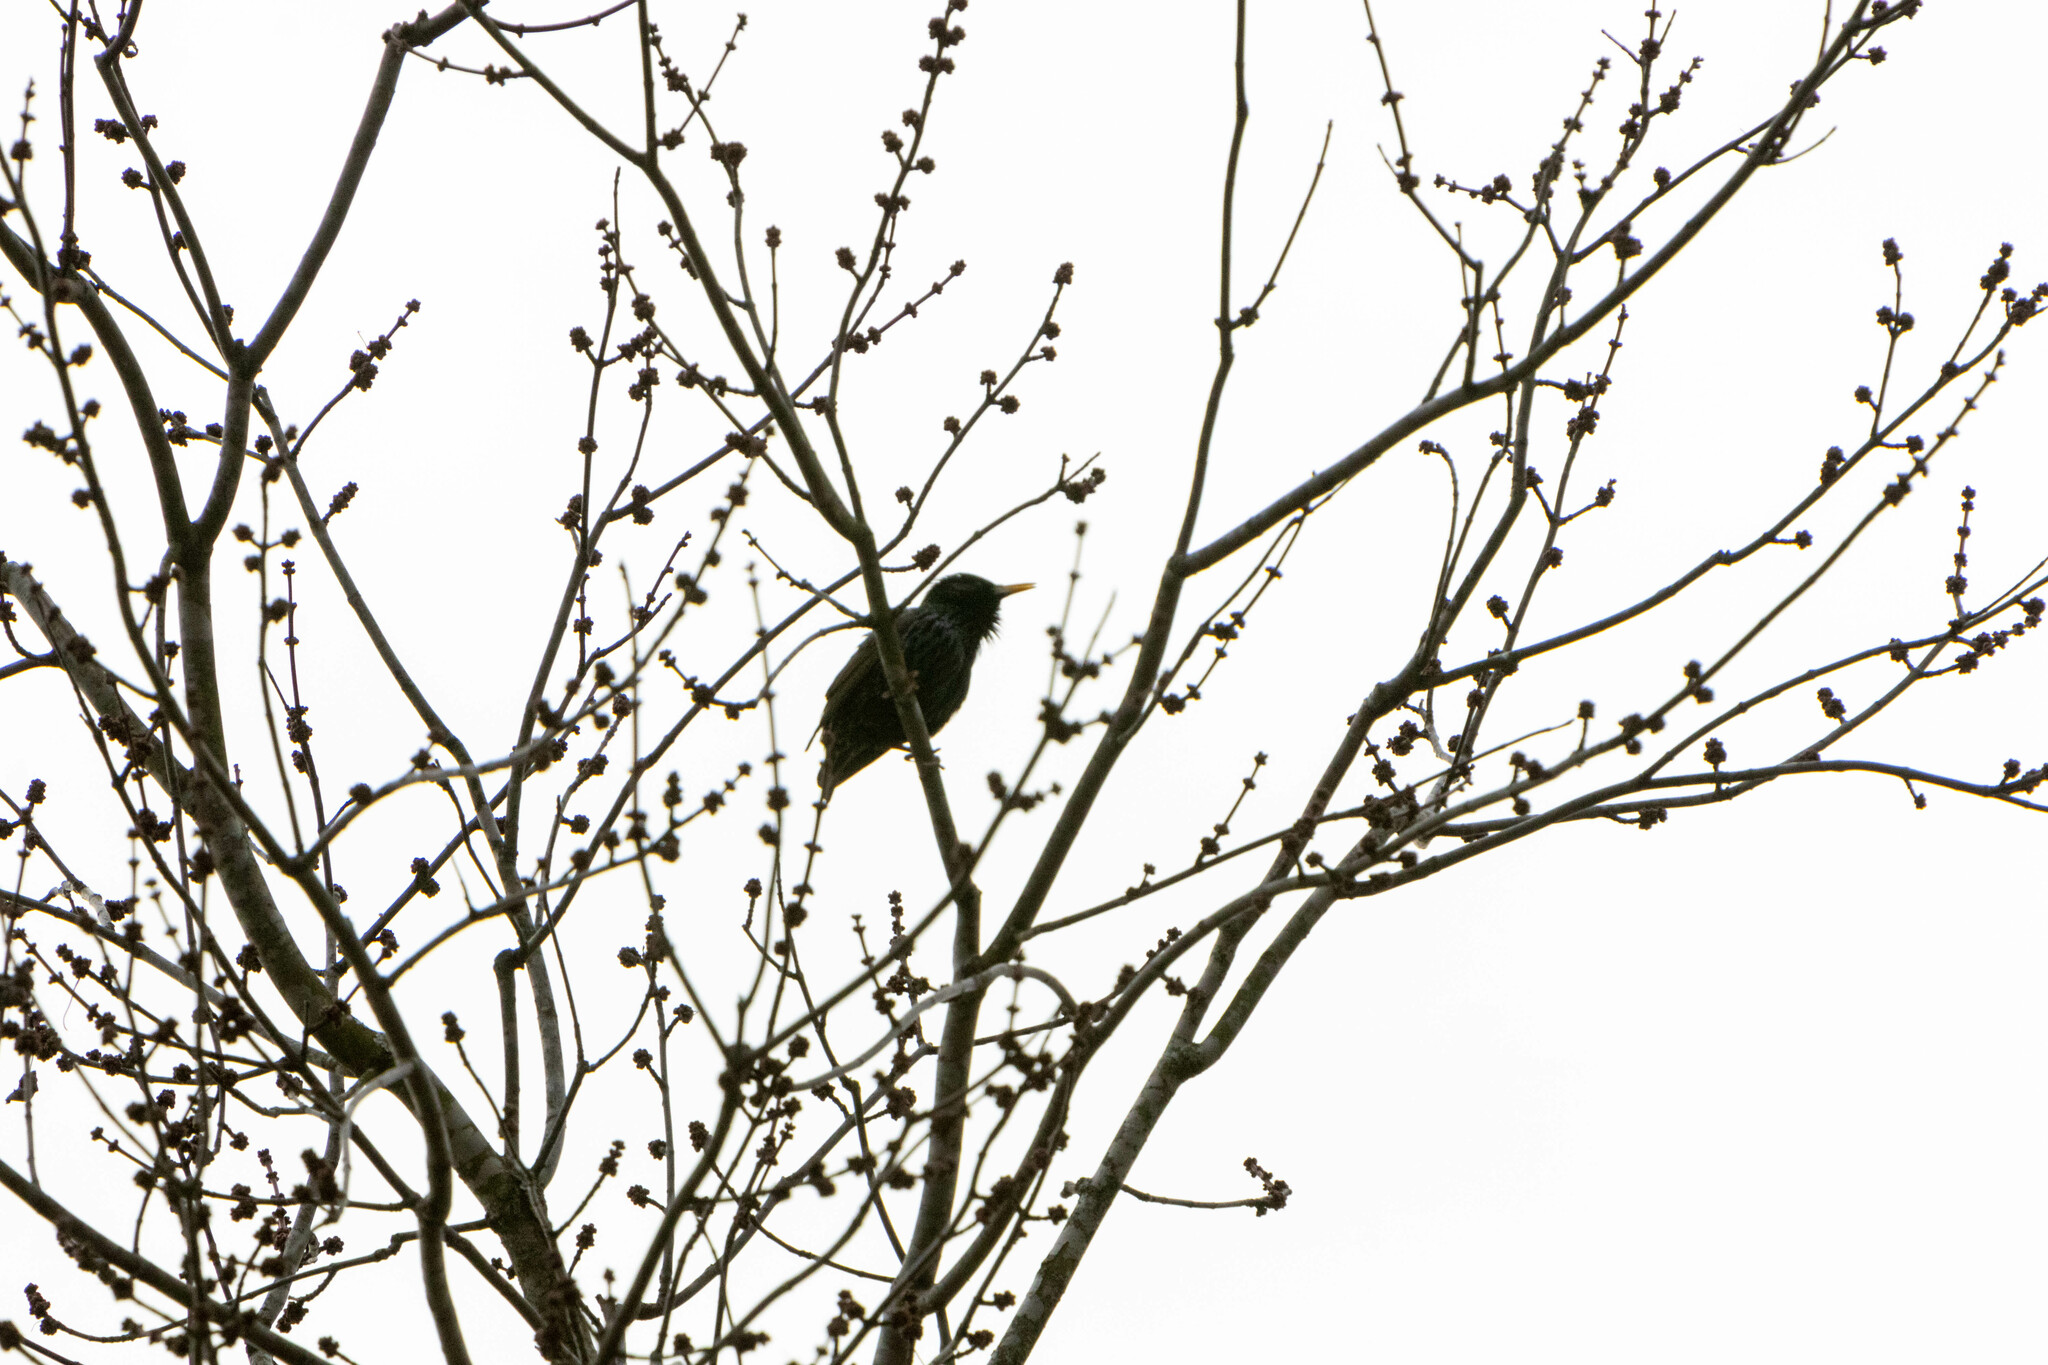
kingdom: Animalia
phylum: Chordata
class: Aves
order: Passeriformes
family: Sturnidae
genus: Sturnus
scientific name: Sturnus vulgaris
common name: Common starling
